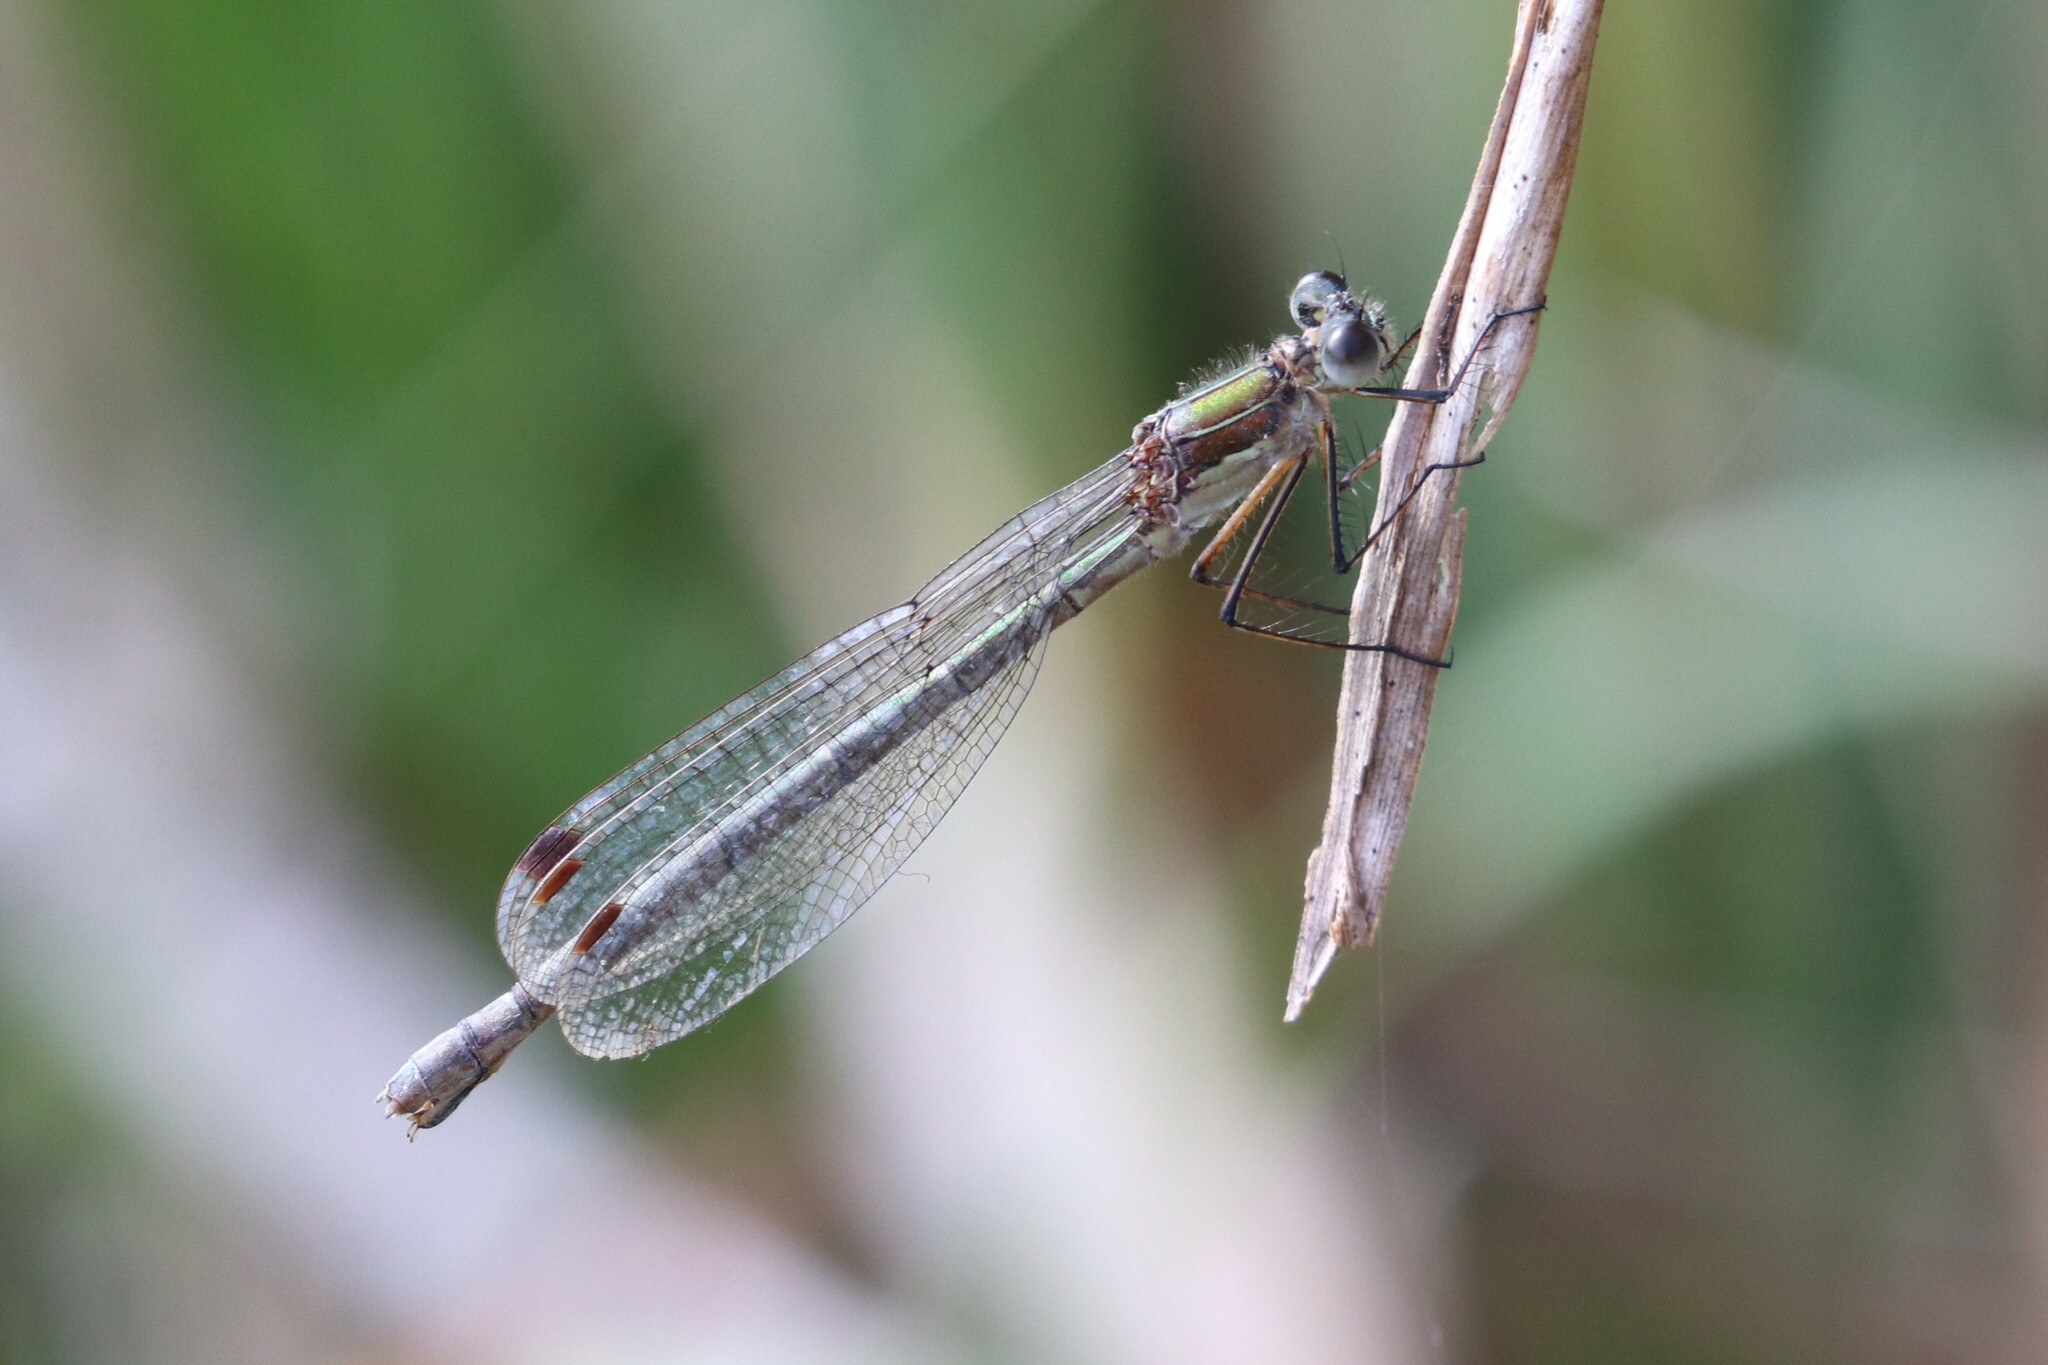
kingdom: Animalia
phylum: Arthropoda
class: Insecta
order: Odonata
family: Lestidae
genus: Lestes
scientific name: Lestes sponsa
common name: Common spreadwing
